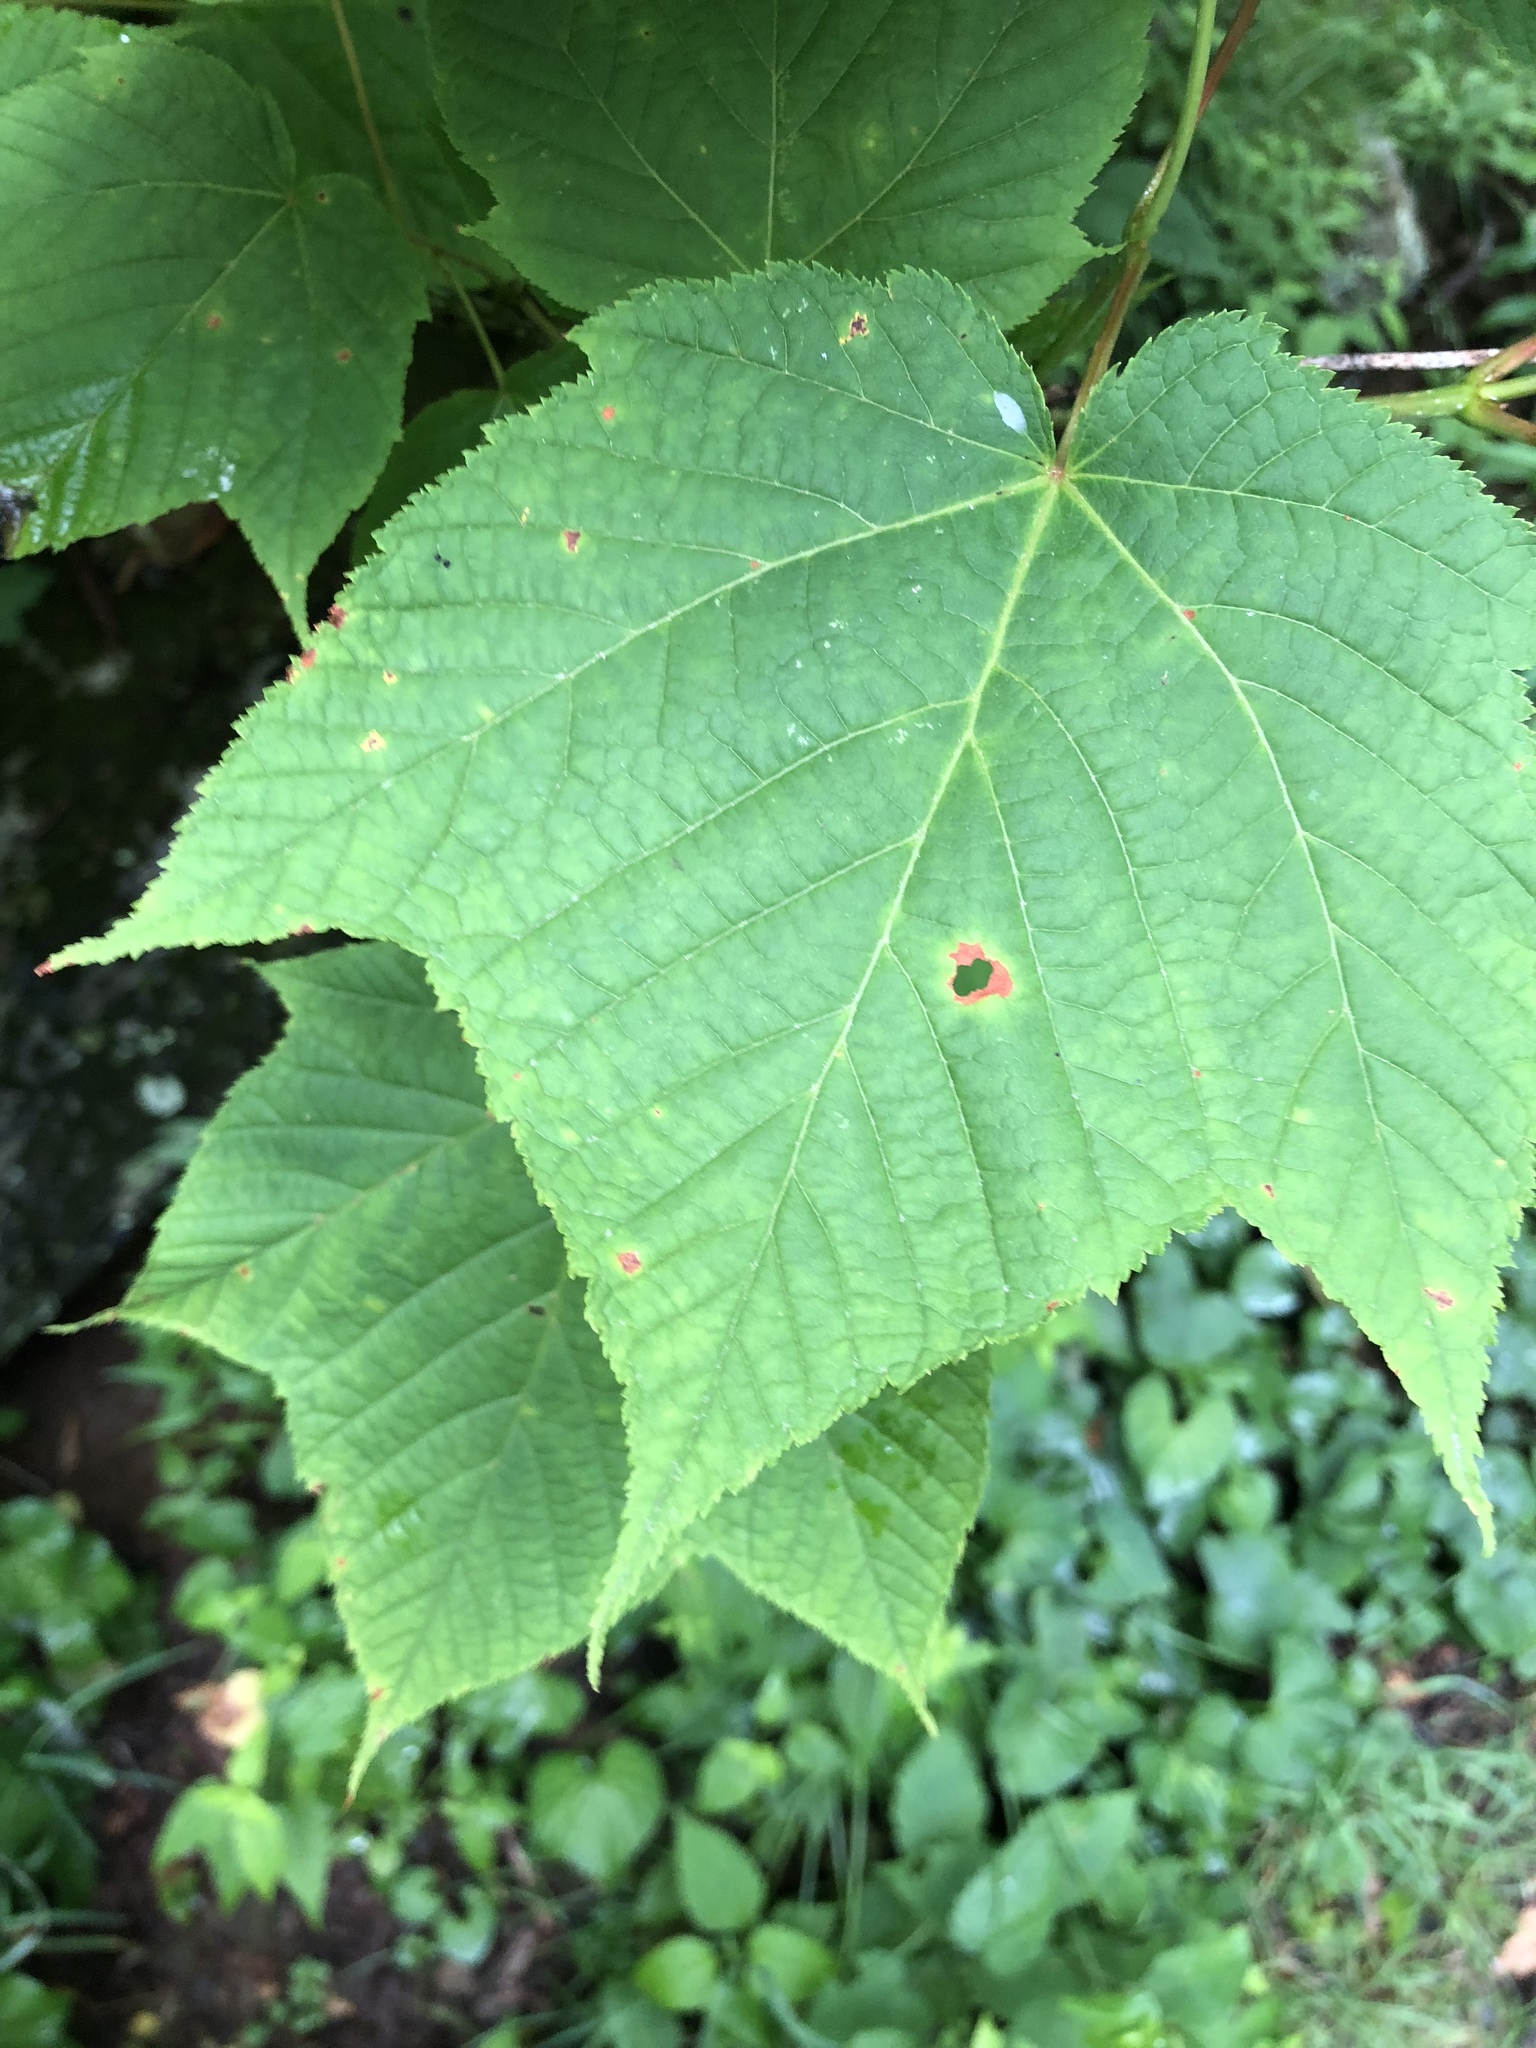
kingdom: Plantae
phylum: Tracheophyta
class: Magnoliopsida
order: Sapindales
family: Sapindaceae
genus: Acer
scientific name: Acer pensylvanicum
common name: Moosewood
